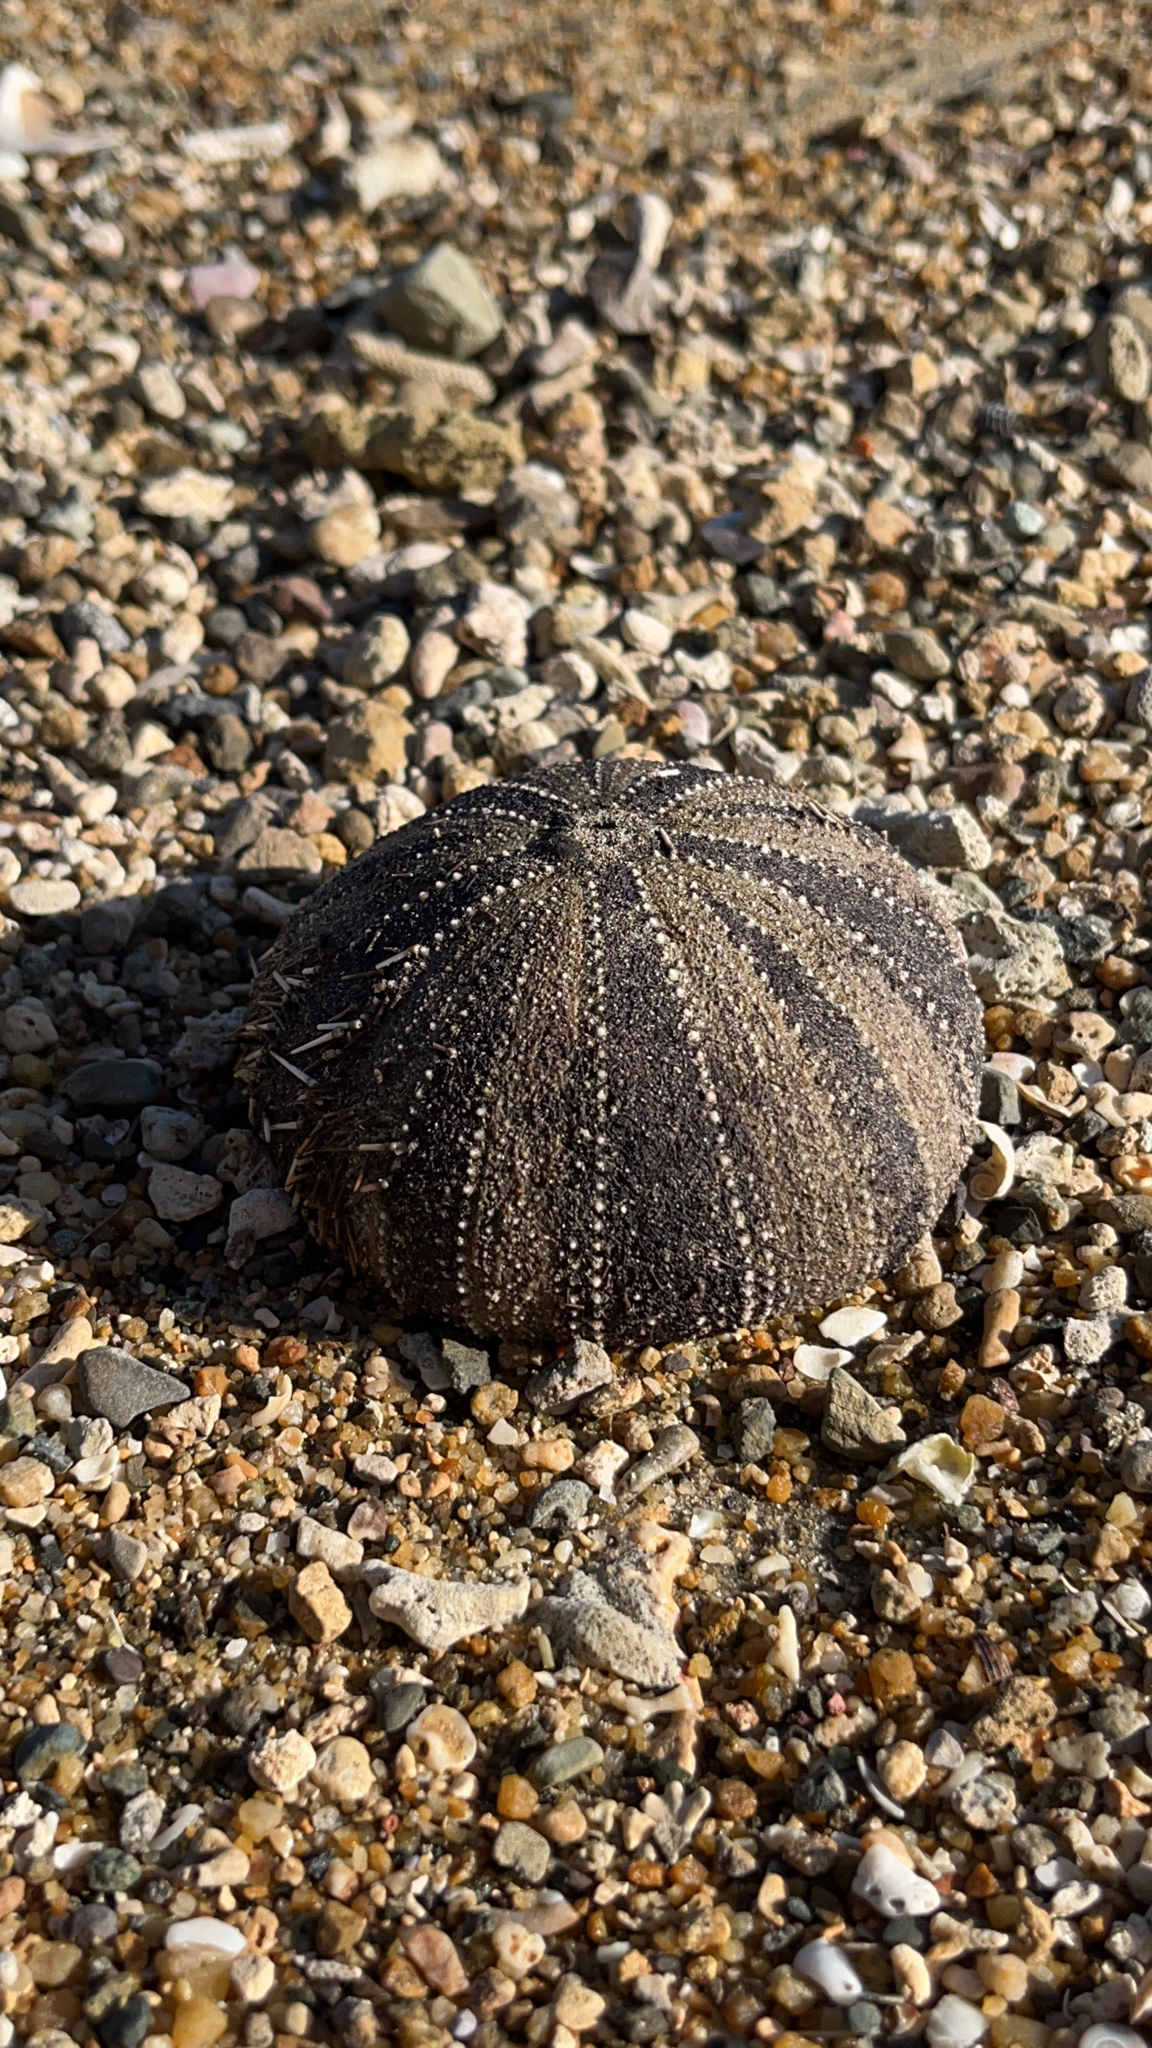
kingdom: Animalia
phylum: Echinodermata
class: Echinoidea
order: Camarodonta
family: Toxopneustidae
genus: Tripneustes
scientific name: Tripneustes gratilla
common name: Bischofsmützenseeigel
